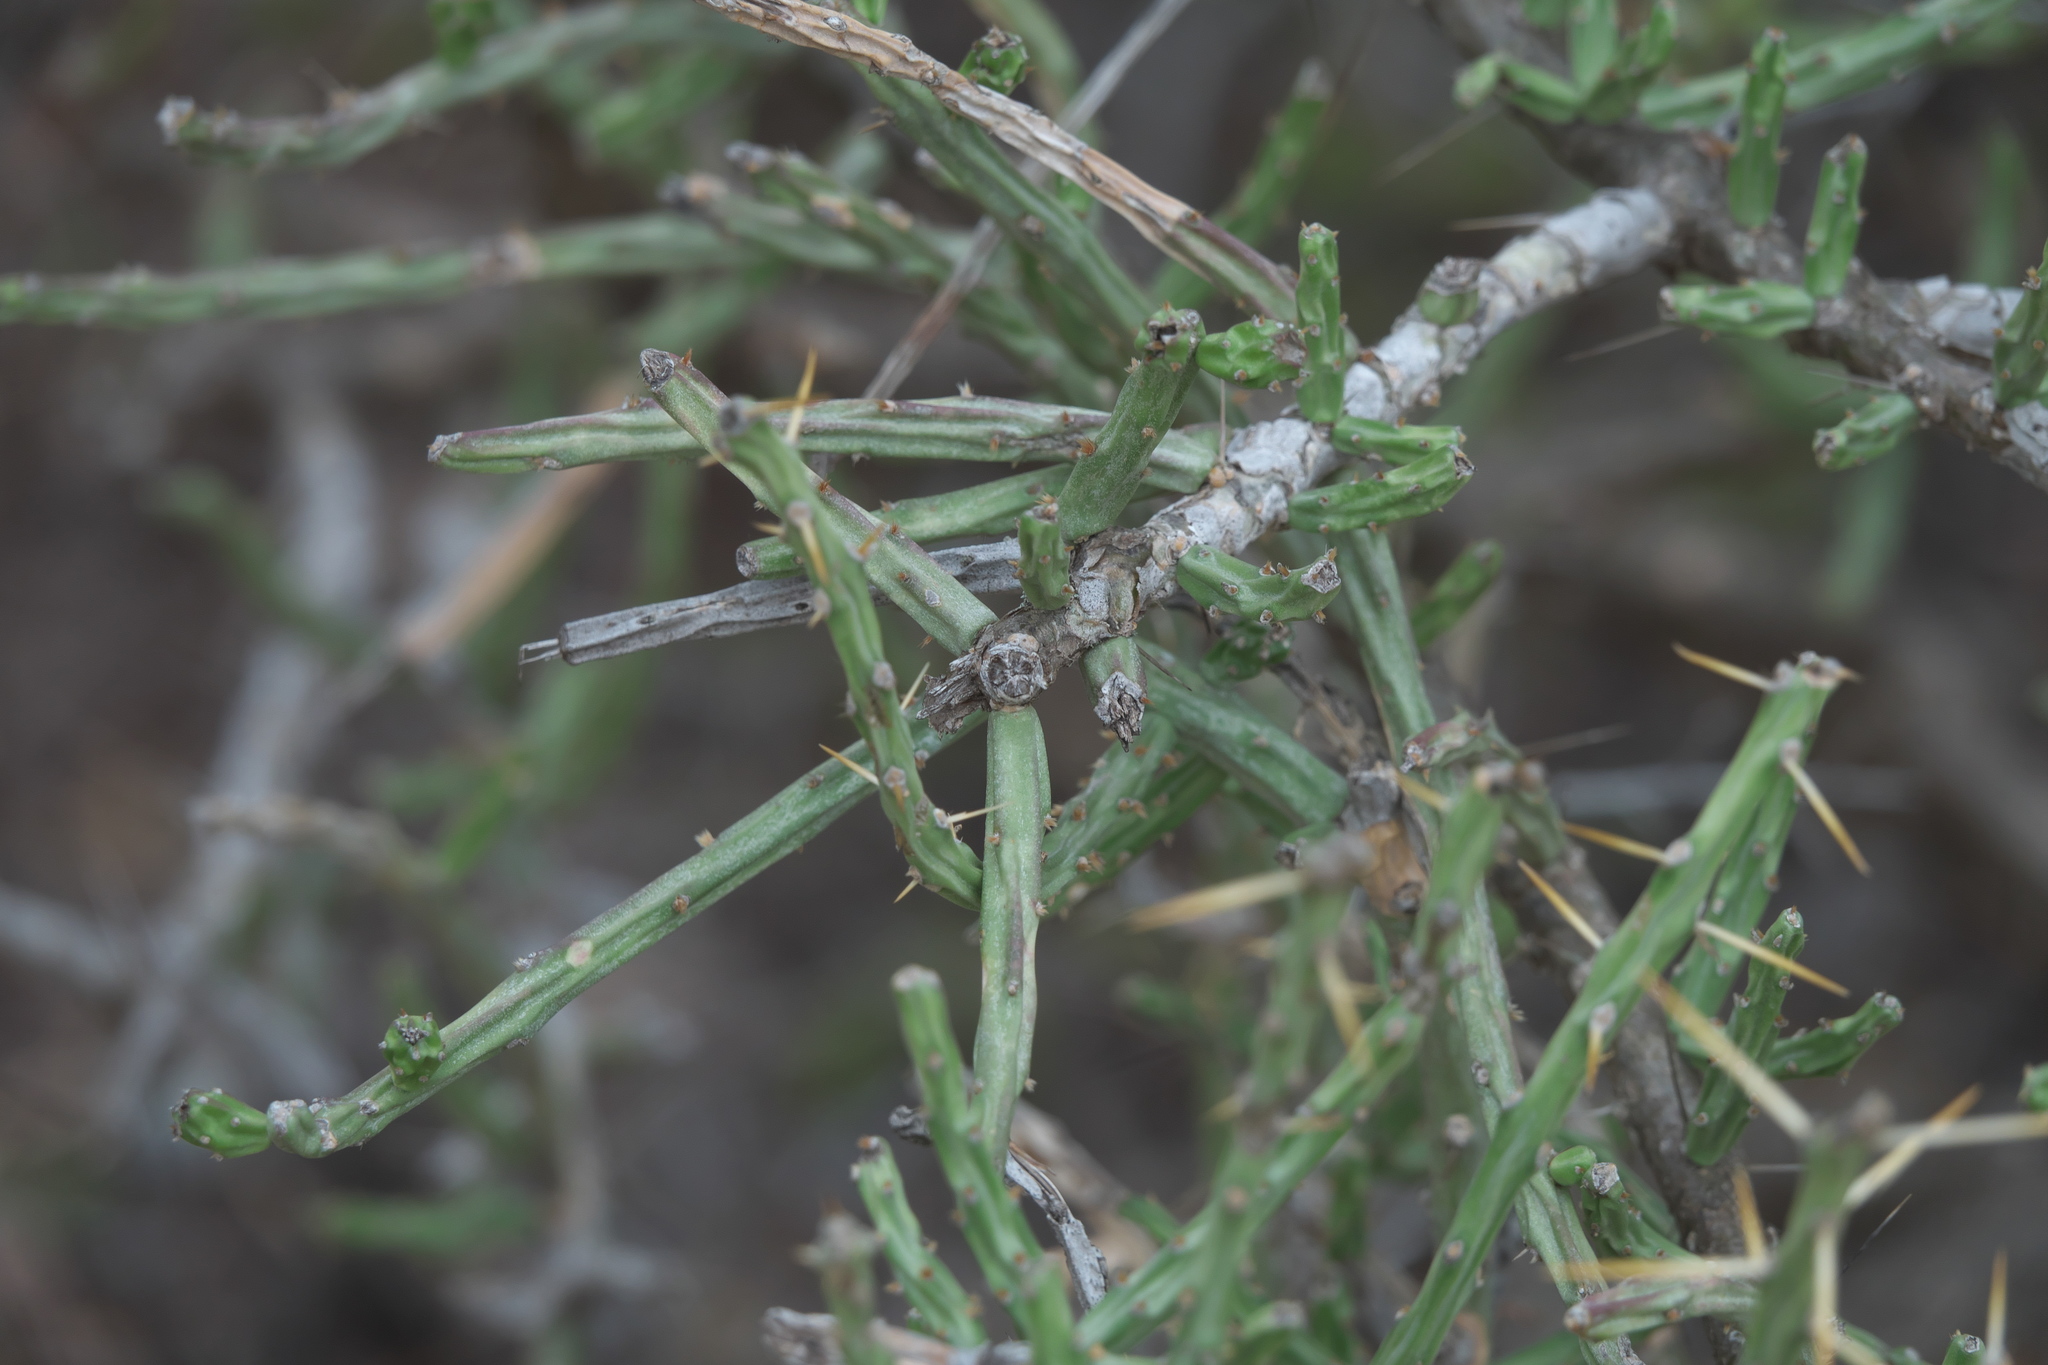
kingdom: Plantae
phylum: Tracheophyta
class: Magnoliopsida
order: Caryophyllales
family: Cactaceae
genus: Cylindropuntia
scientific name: Cylindropuntia leptocaulis
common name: Christmas cactus
